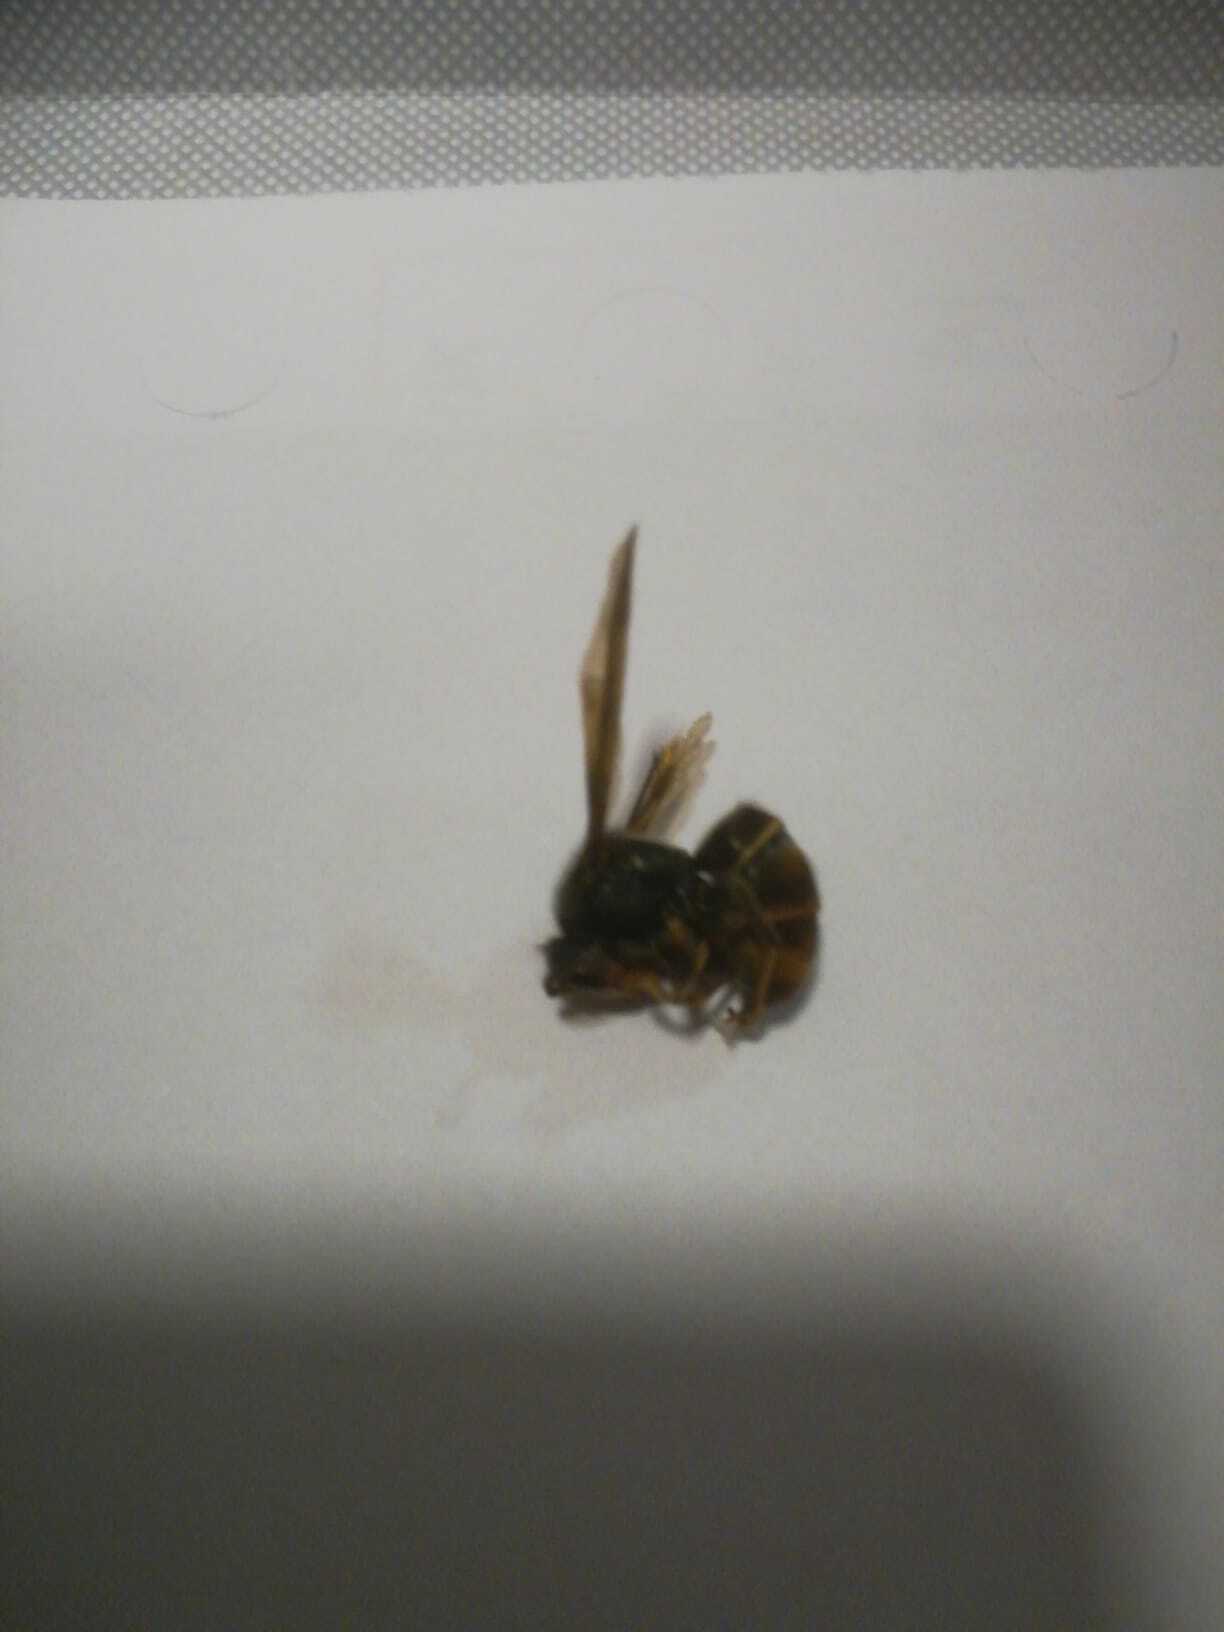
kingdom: Animalia
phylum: Arthropoda
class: Insecta
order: Hymenoptera
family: Vespidae
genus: Vespa
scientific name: Vespa velutina
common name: Asian hornet
